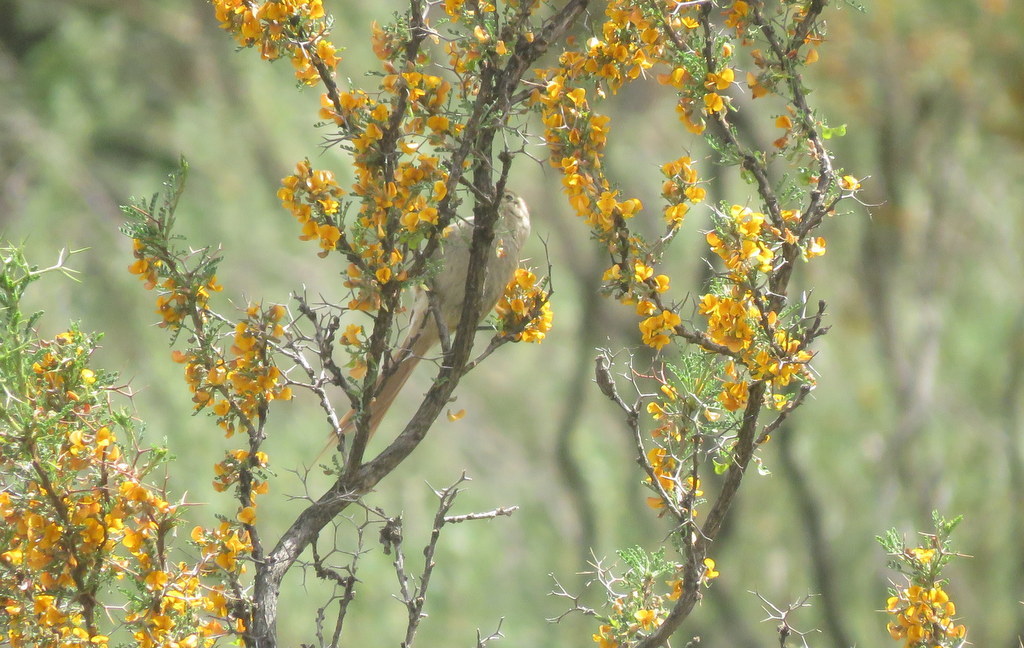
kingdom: Animalia
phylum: Chordata
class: Aves
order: Passeriformes
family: Furnariidae
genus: Leptasthenura
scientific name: Leptasthenura fuliginiceps
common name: Brown-capped tit-spinetail
